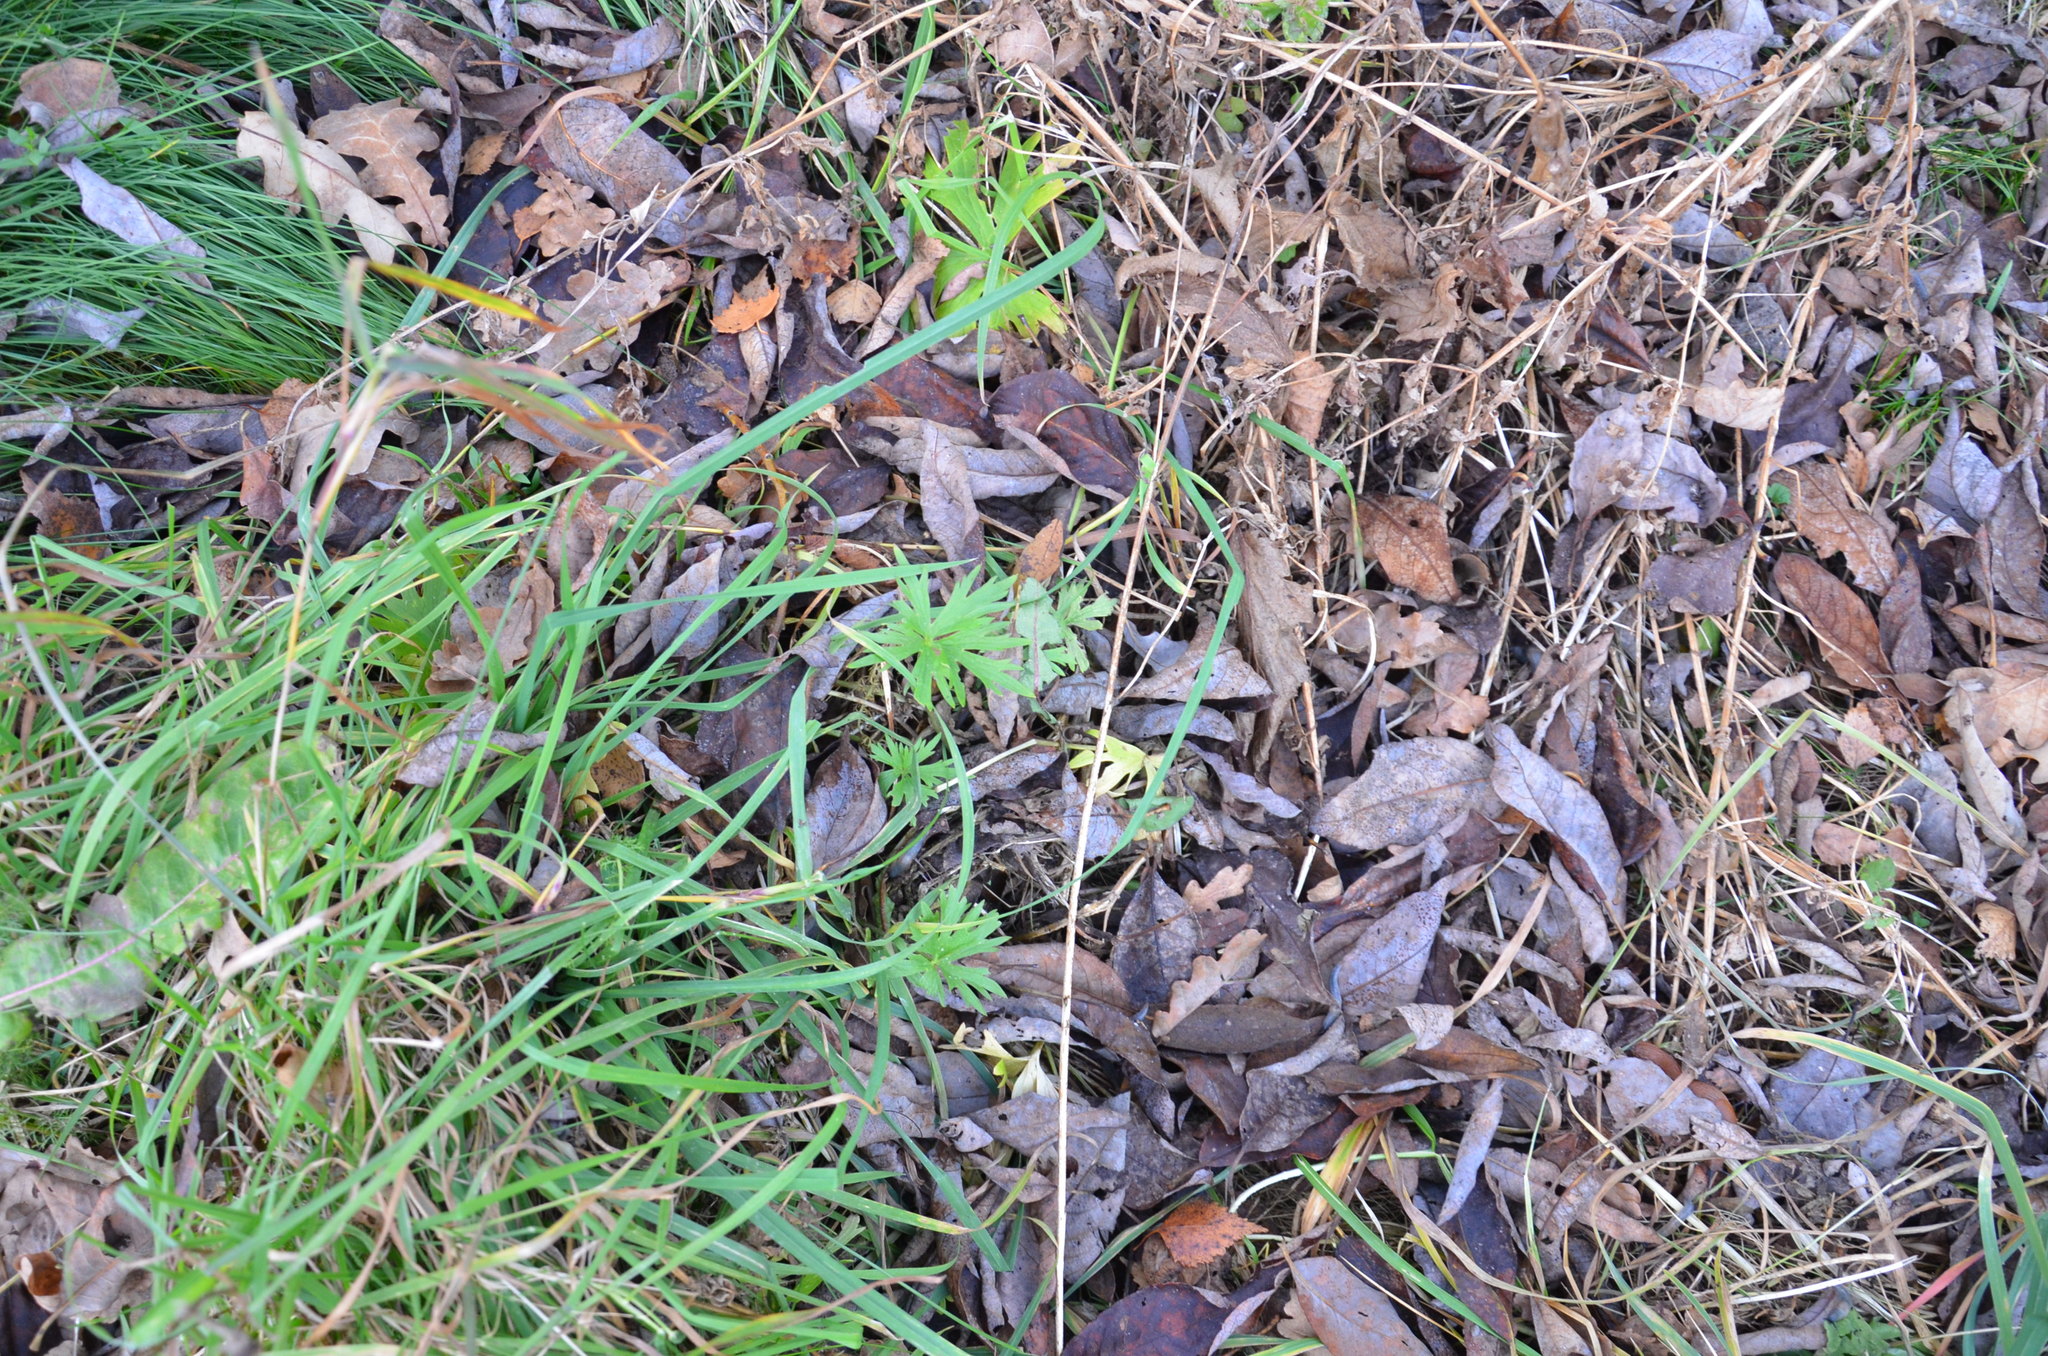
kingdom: Plantae
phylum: Tracheophyta
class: Magnoliopsida
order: Ranunculales
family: Ranunculaceae
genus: Ranunculus
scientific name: Ranunculus acris
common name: Meadow buttercup
